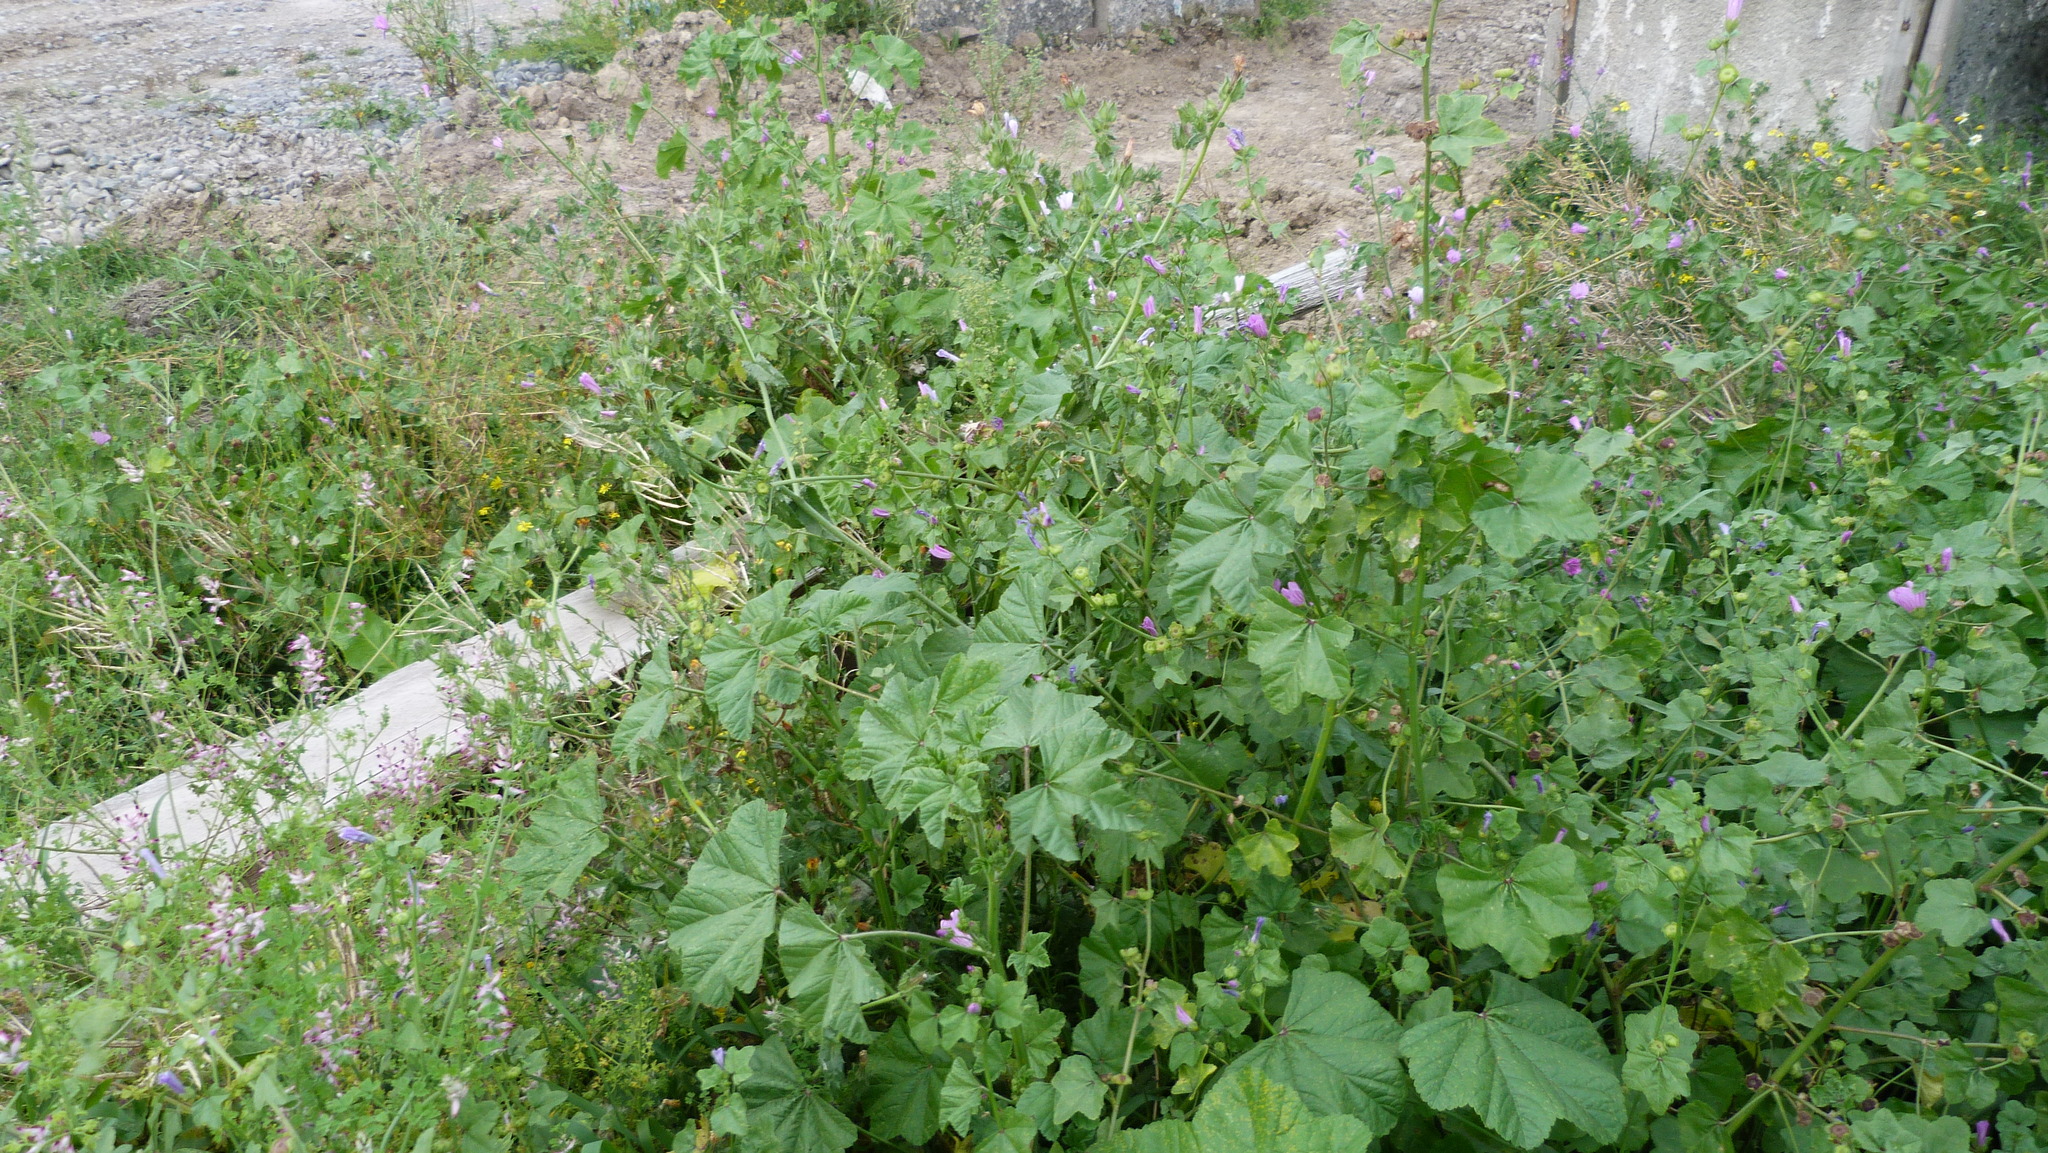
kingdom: Plantae
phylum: Tracheophyta
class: Magnoliopsida
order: Malvales
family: Malvaceae
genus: Malva
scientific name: Malva sylvestris
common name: Common mallow
